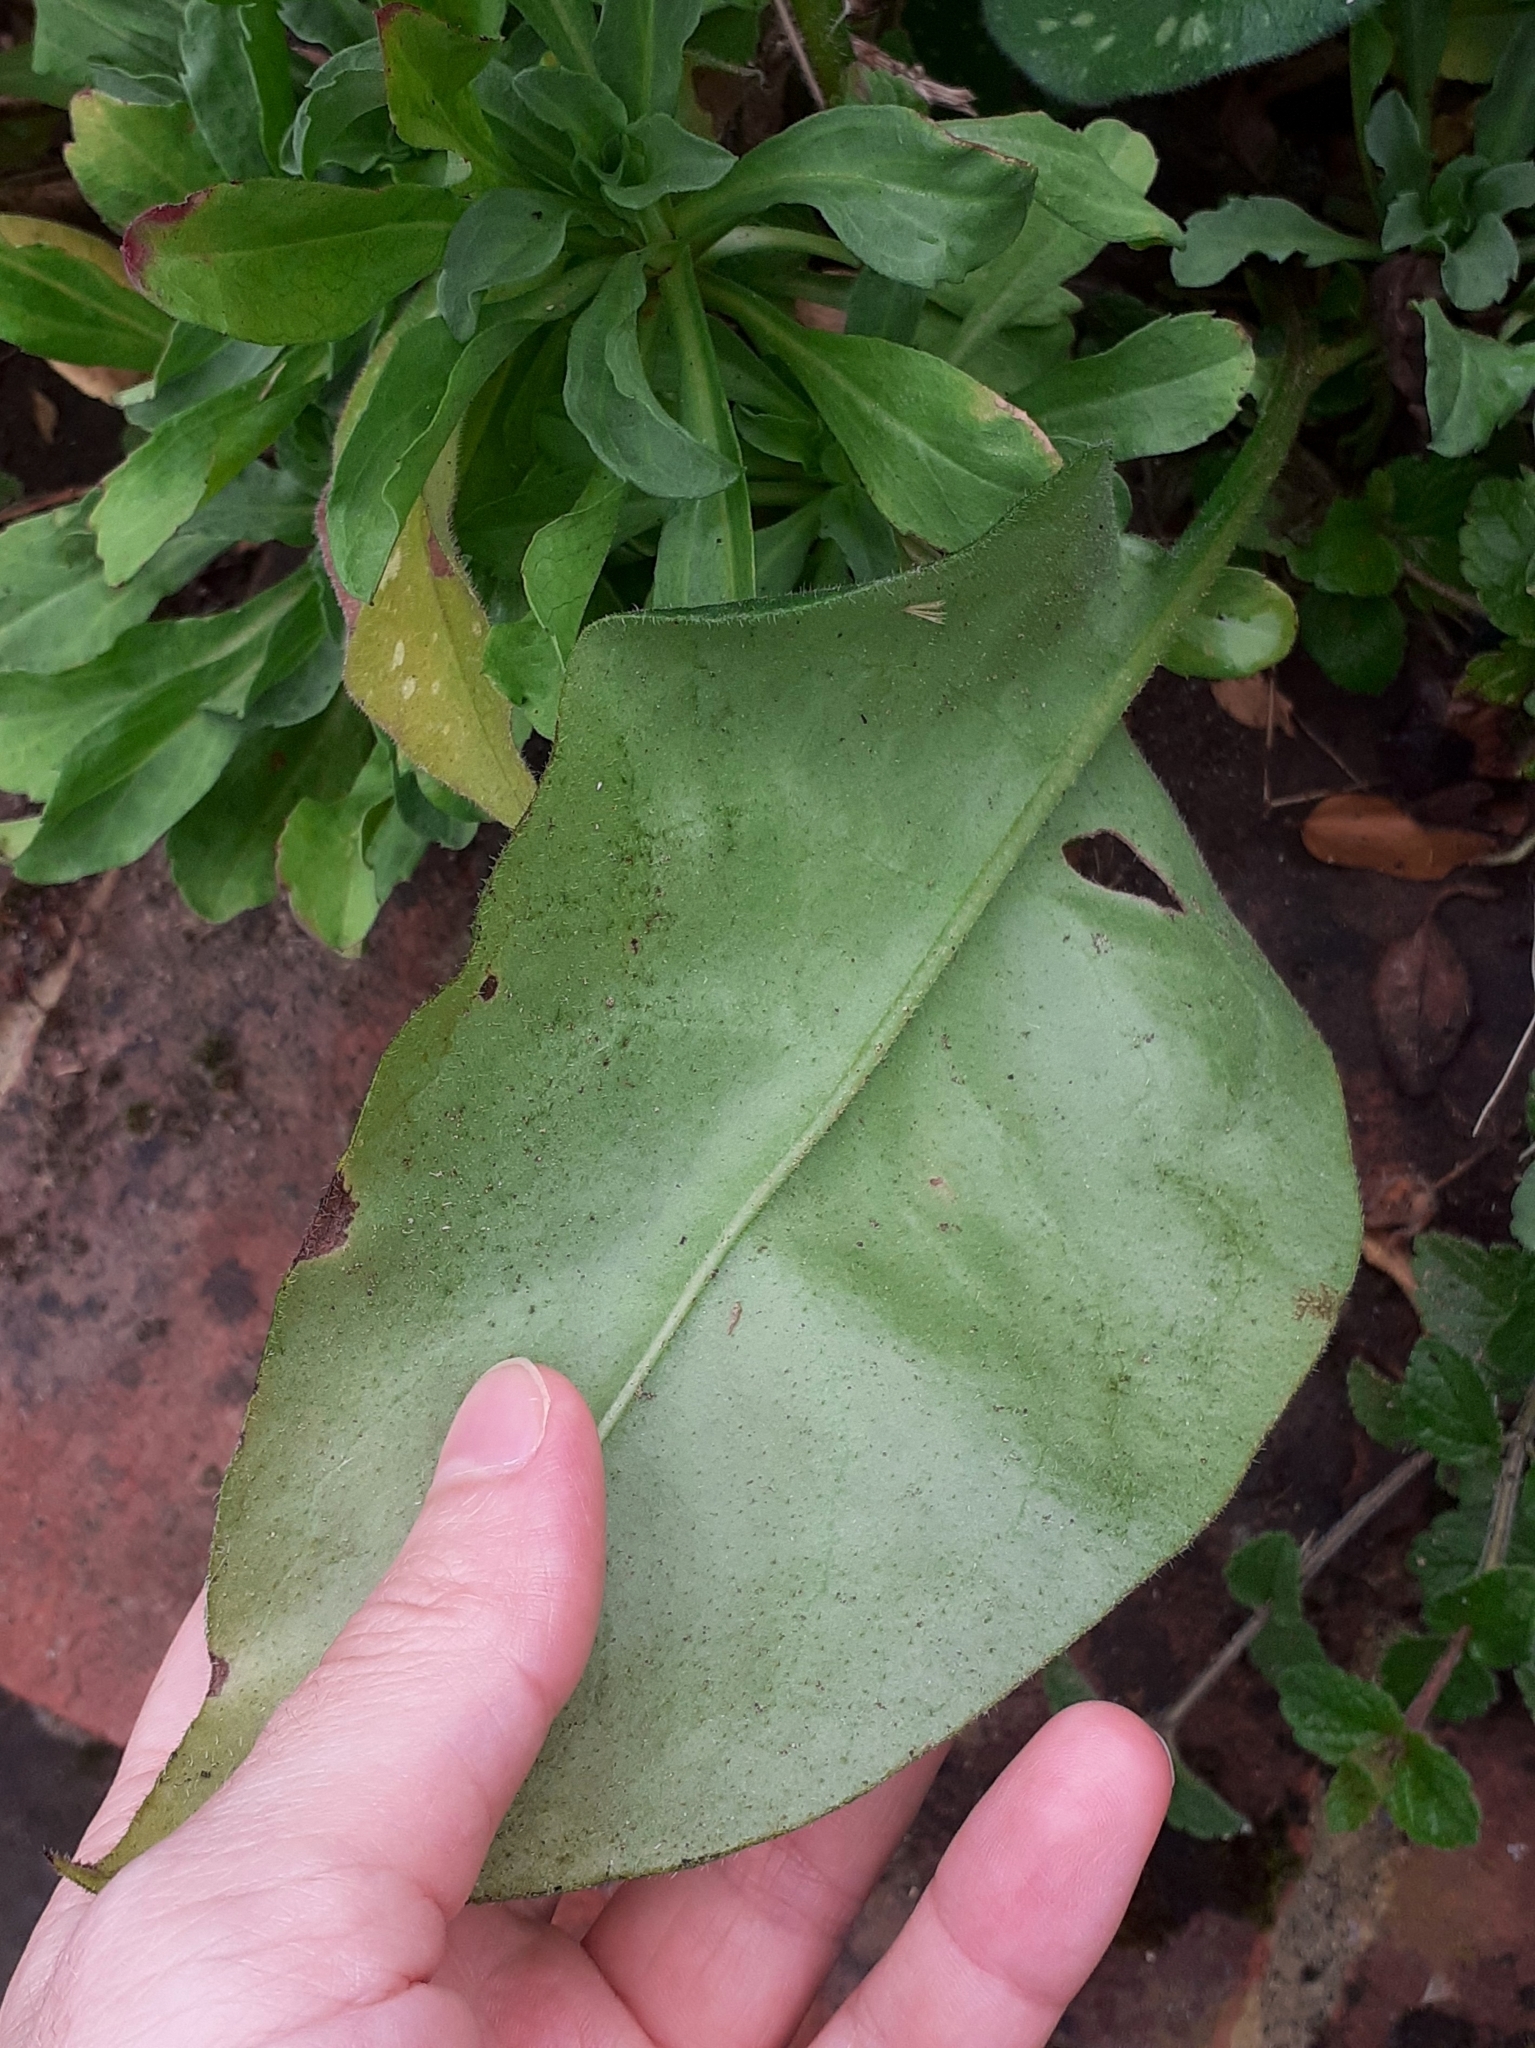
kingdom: Plantae
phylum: Tracheophyta
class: Magnoliopsida
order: Boraginales
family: Boraginaceae
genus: Pulmonaria
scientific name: Pulmonaria officinalis
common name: Lungwort
